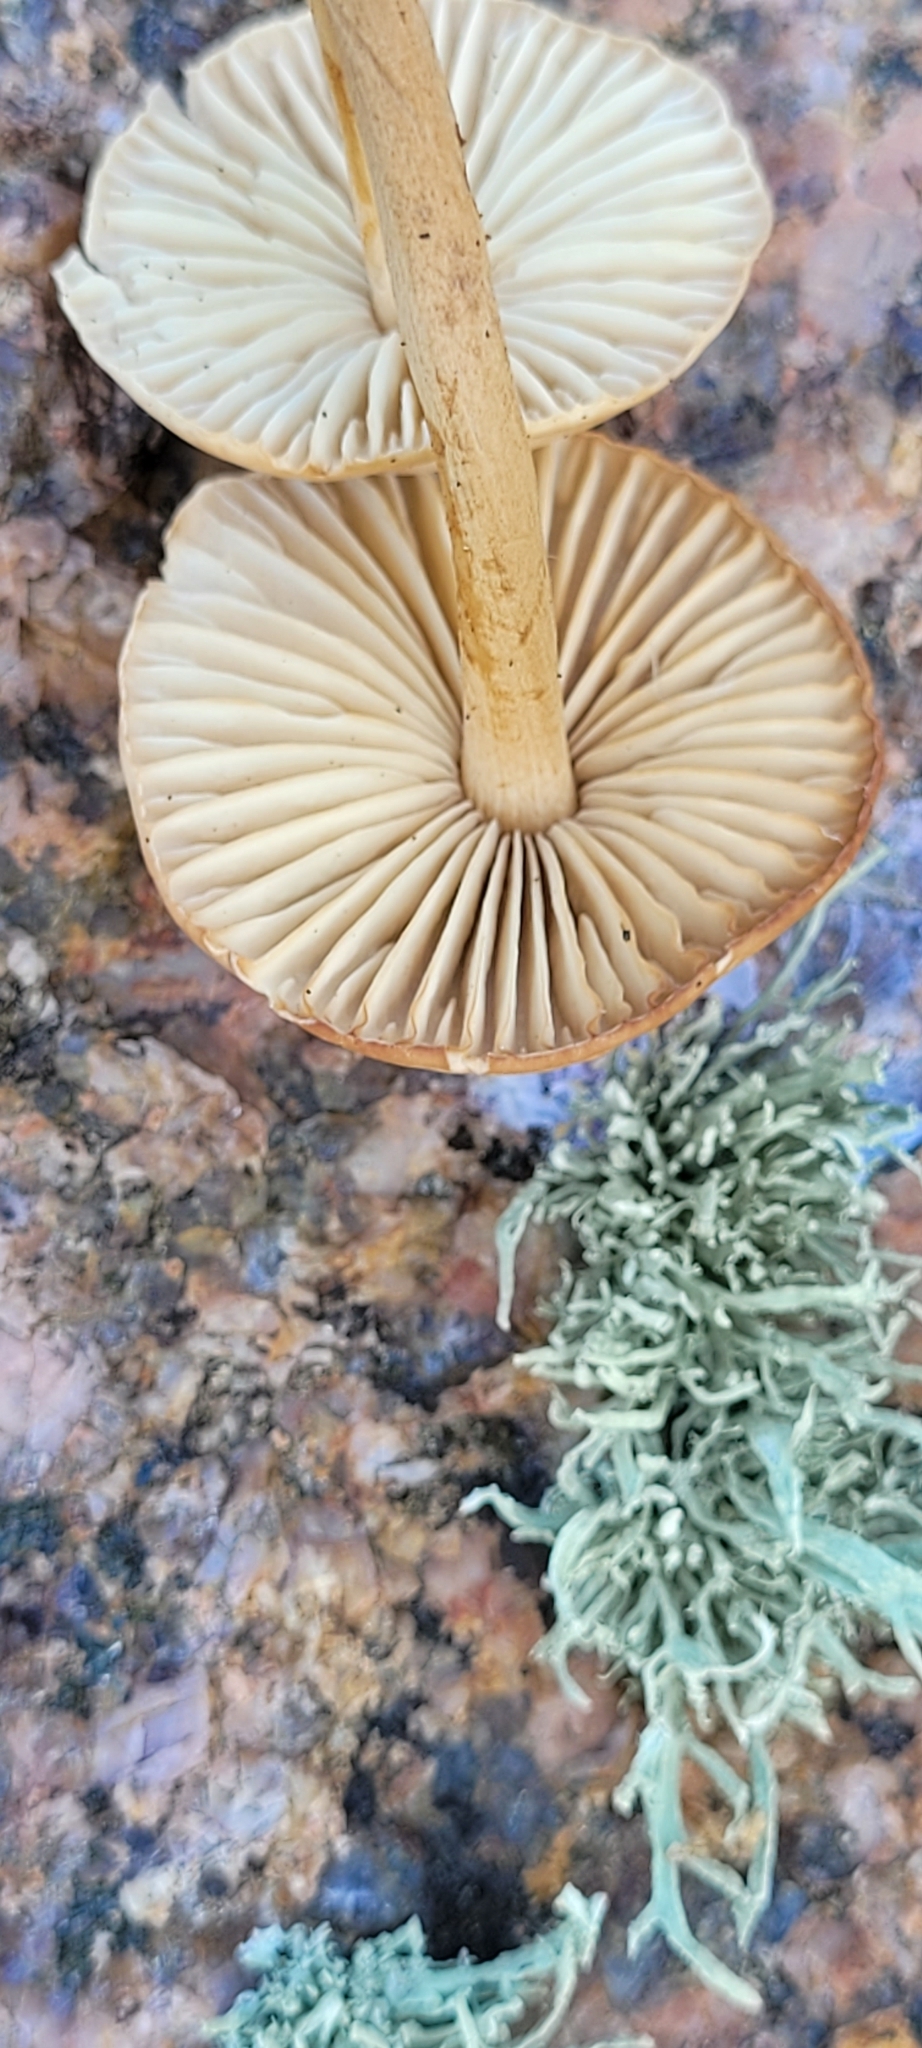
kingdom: Fungi
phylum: Basidiomycota
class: Agaricomycetes
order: Agaricales
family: Marasmiaceae
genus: Marasmius
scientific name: Marasmius oreades
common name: Fairy ring champignon
